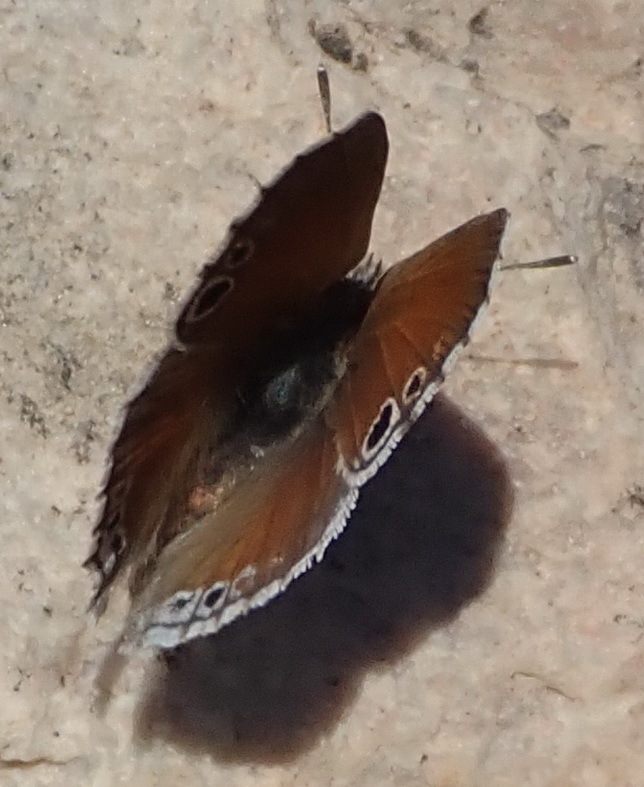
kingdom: Animalia
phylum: Arthropoda
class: Insecta
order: Lepidoptera
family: Lycaenidae
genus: Leptomyrina
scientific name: Leptomyrina lara
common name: Cape black-eye
